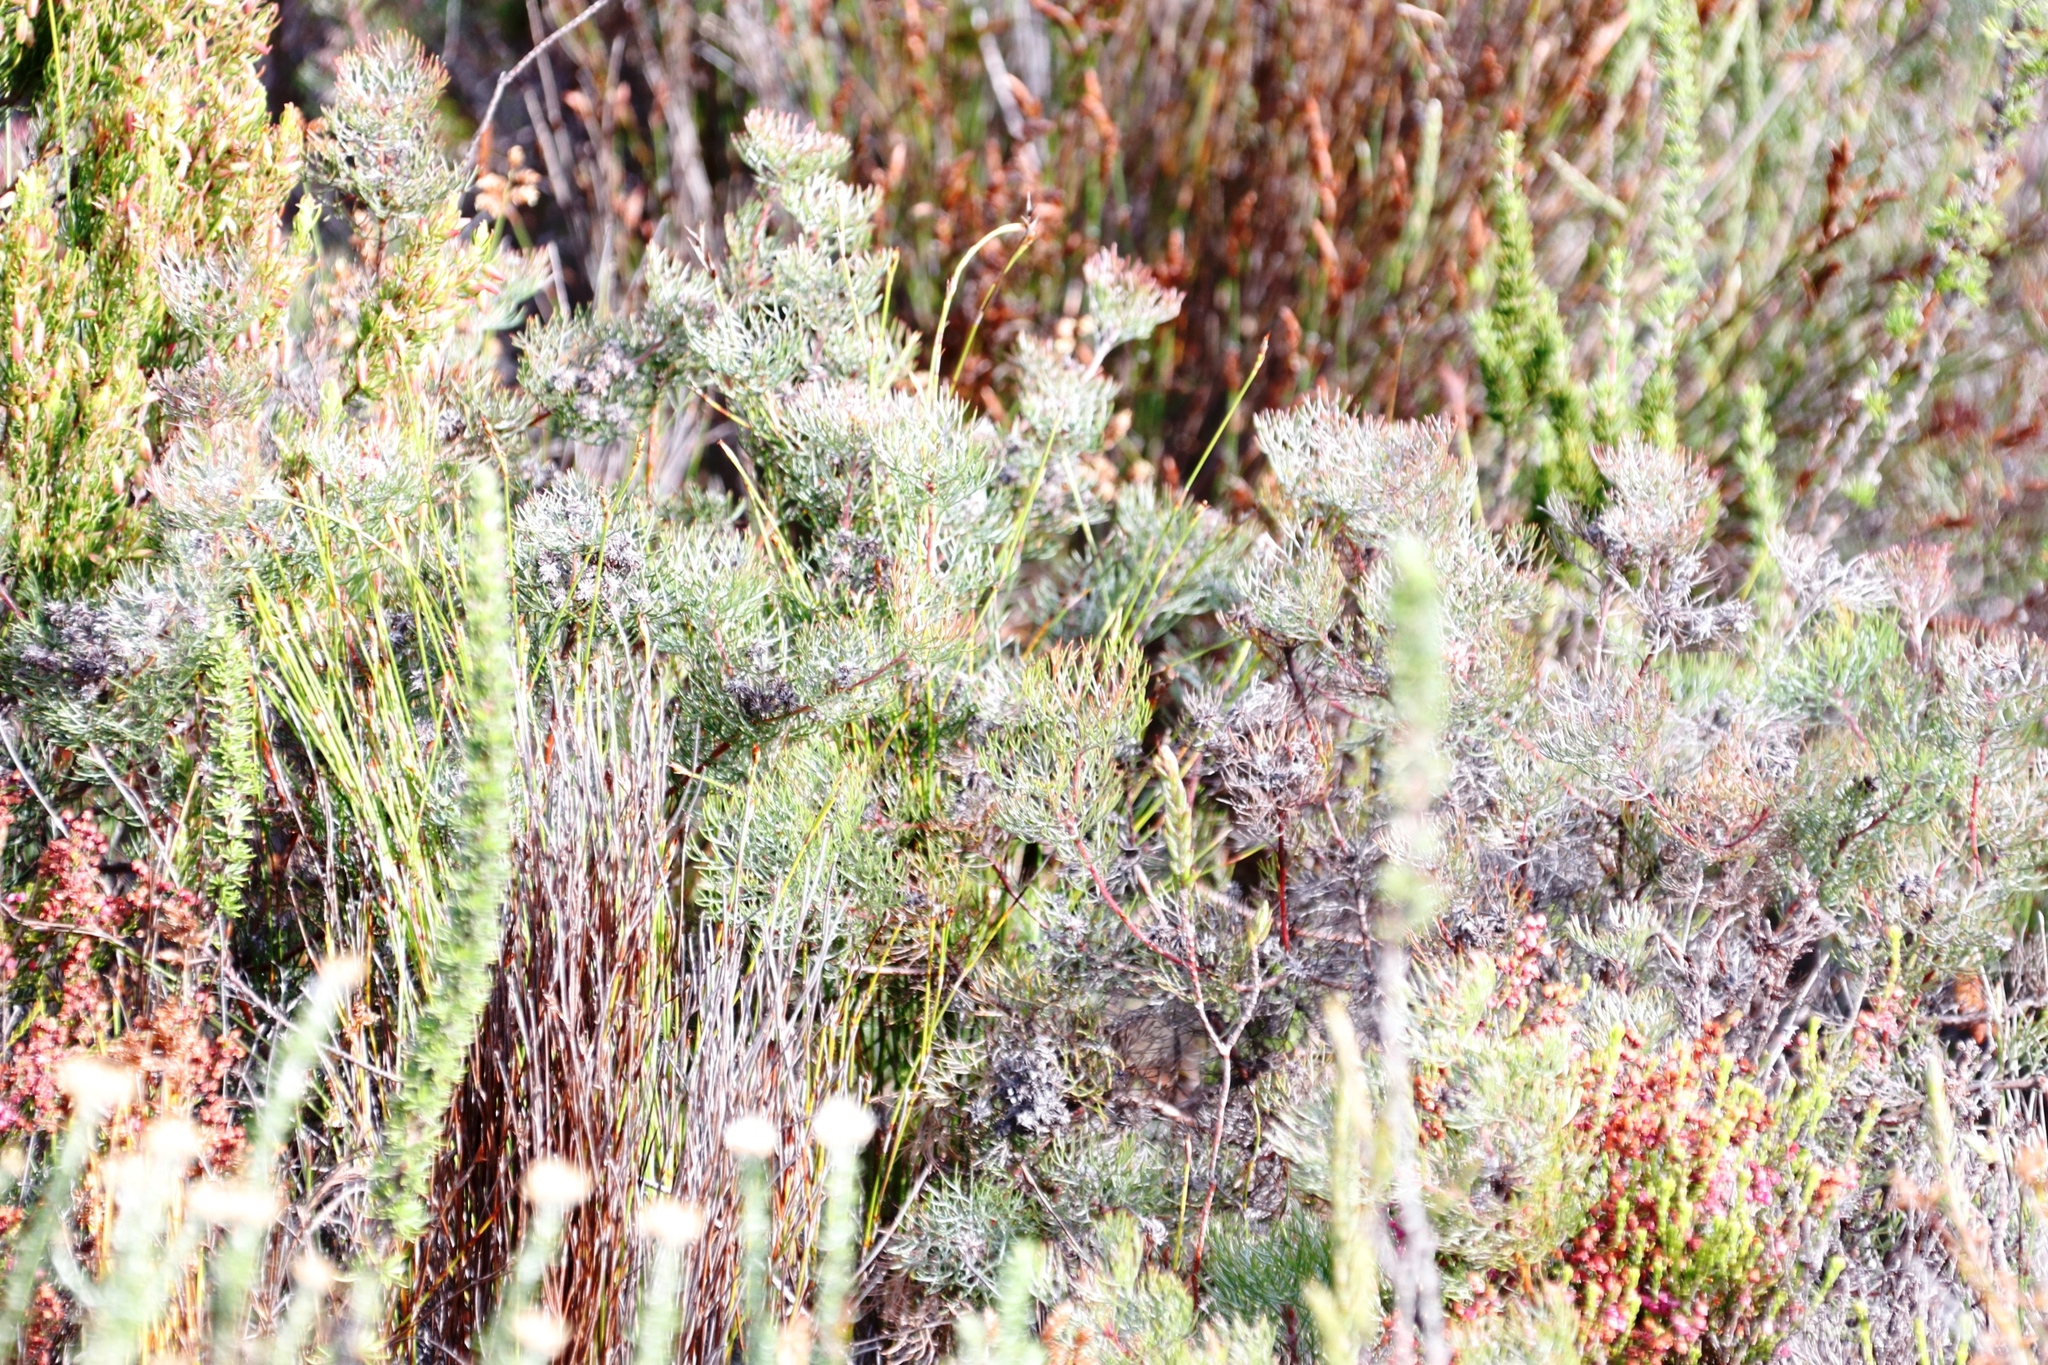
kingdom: Plantae
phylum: Tracheophyta
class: Magnoliopsida
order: Proteales
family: Proteaceae
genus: Serruria
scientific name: Serruria fasciflora
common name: Common pin spiderhead
